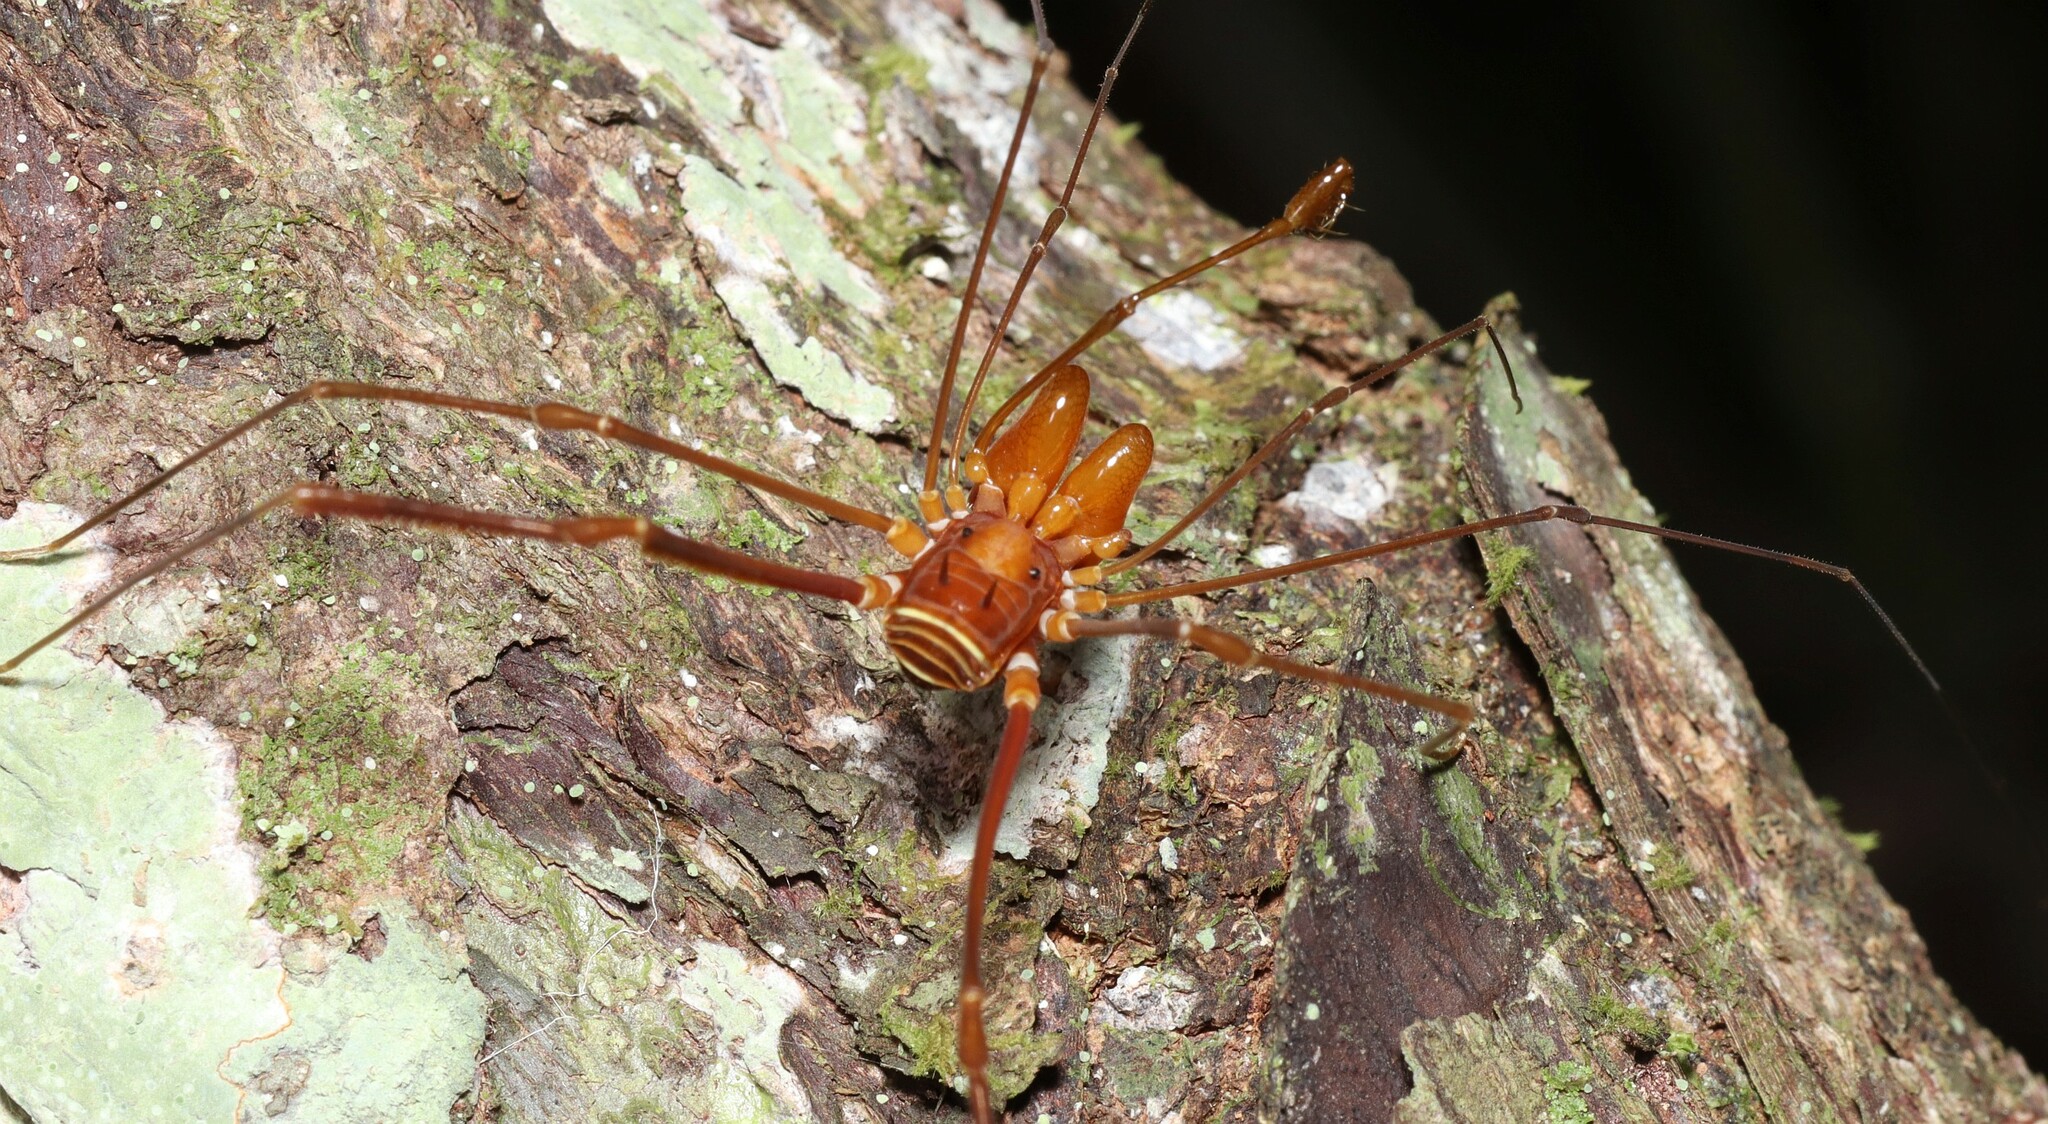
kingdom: Animalia
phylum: Arthropoda
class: Arachnida
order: Opiliones
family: Stygnidae
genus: Obidosus
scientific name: Obidosus boibumba
